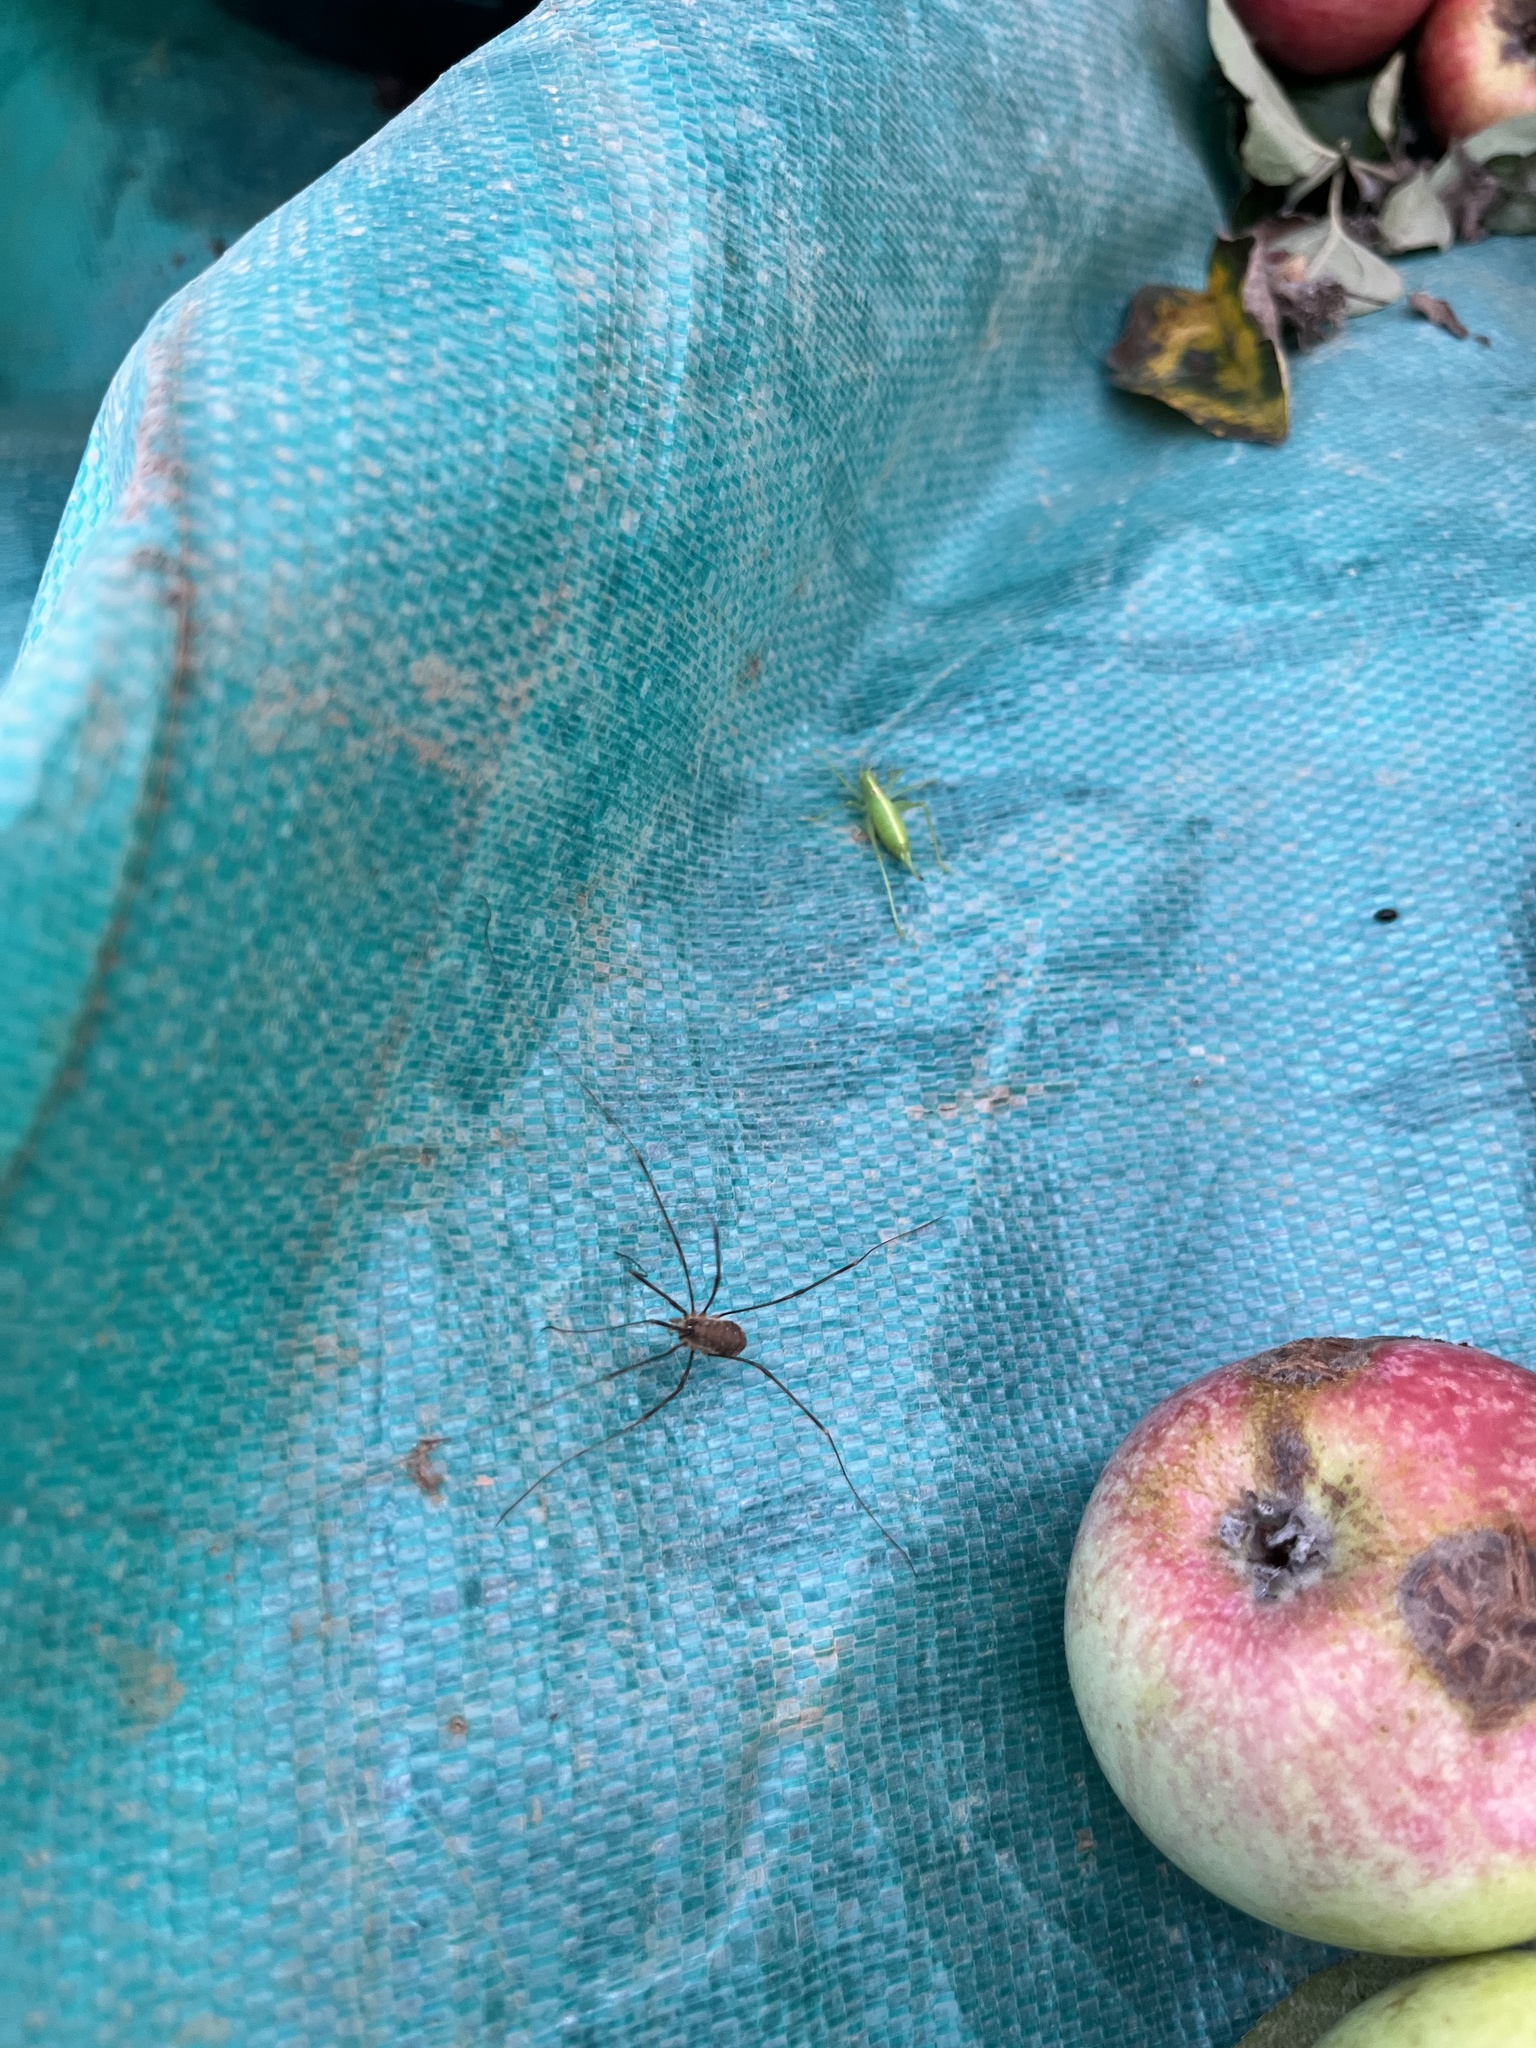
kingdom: Animalia
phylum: Arthropoda
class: Arachnida
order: Opiliones
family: Phalangiidae
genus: Opilio
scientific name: Opilio canestrinii
